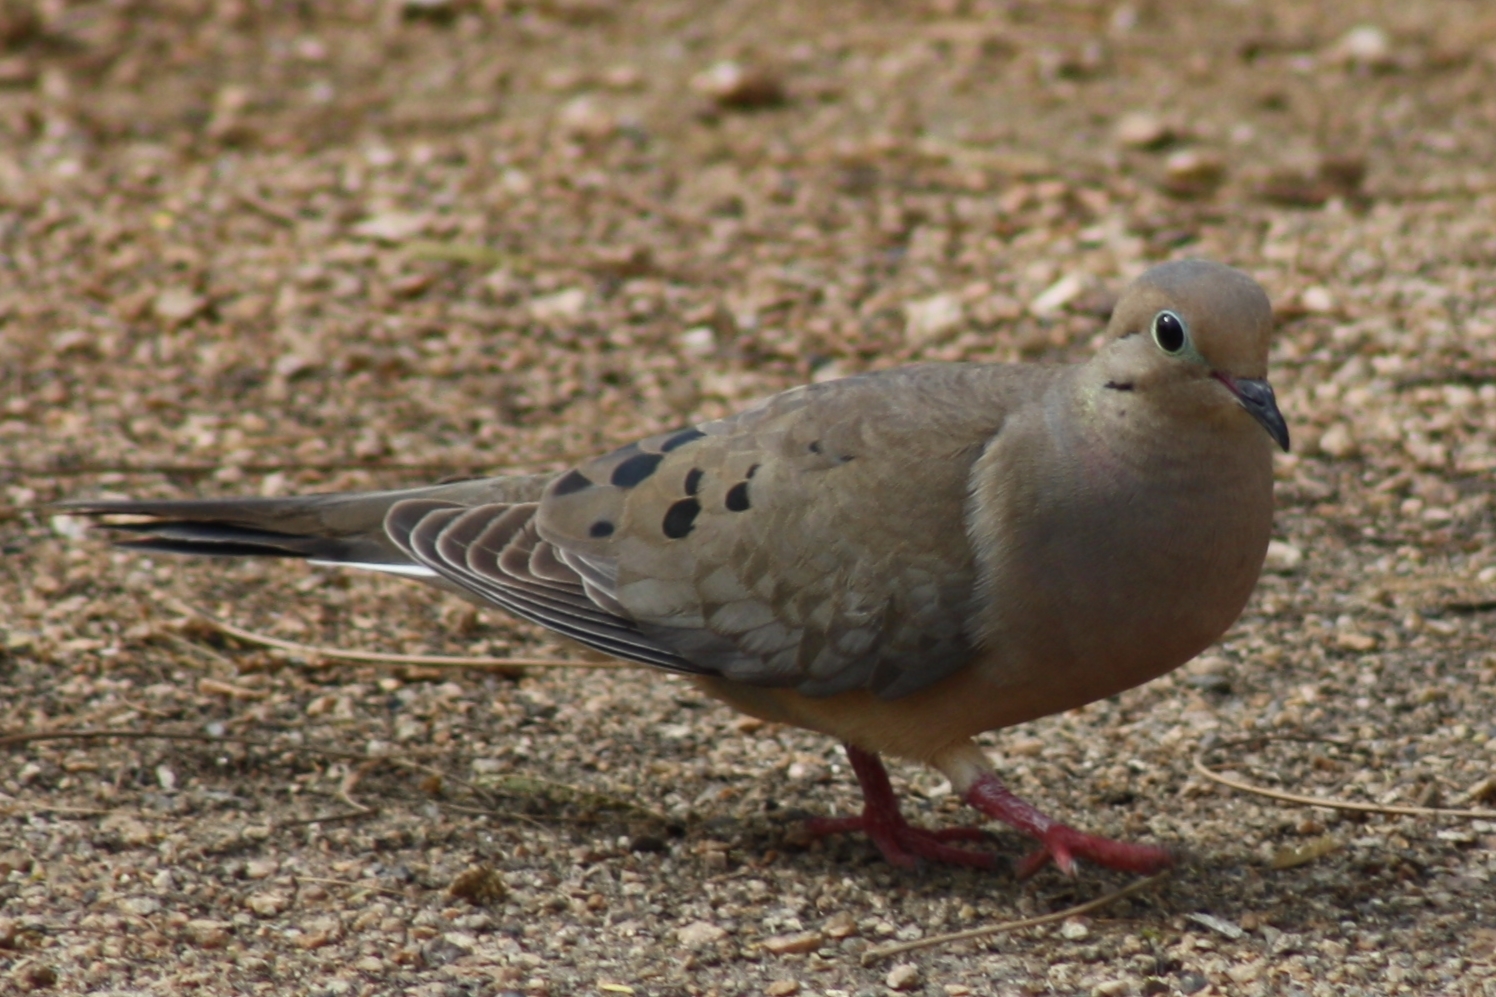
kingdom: Animalia
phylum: Chordata
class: Aves
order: Columbiformes
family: Columbidae
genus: Zenaida
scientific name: Zenaida macroura
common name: Mourning dove
